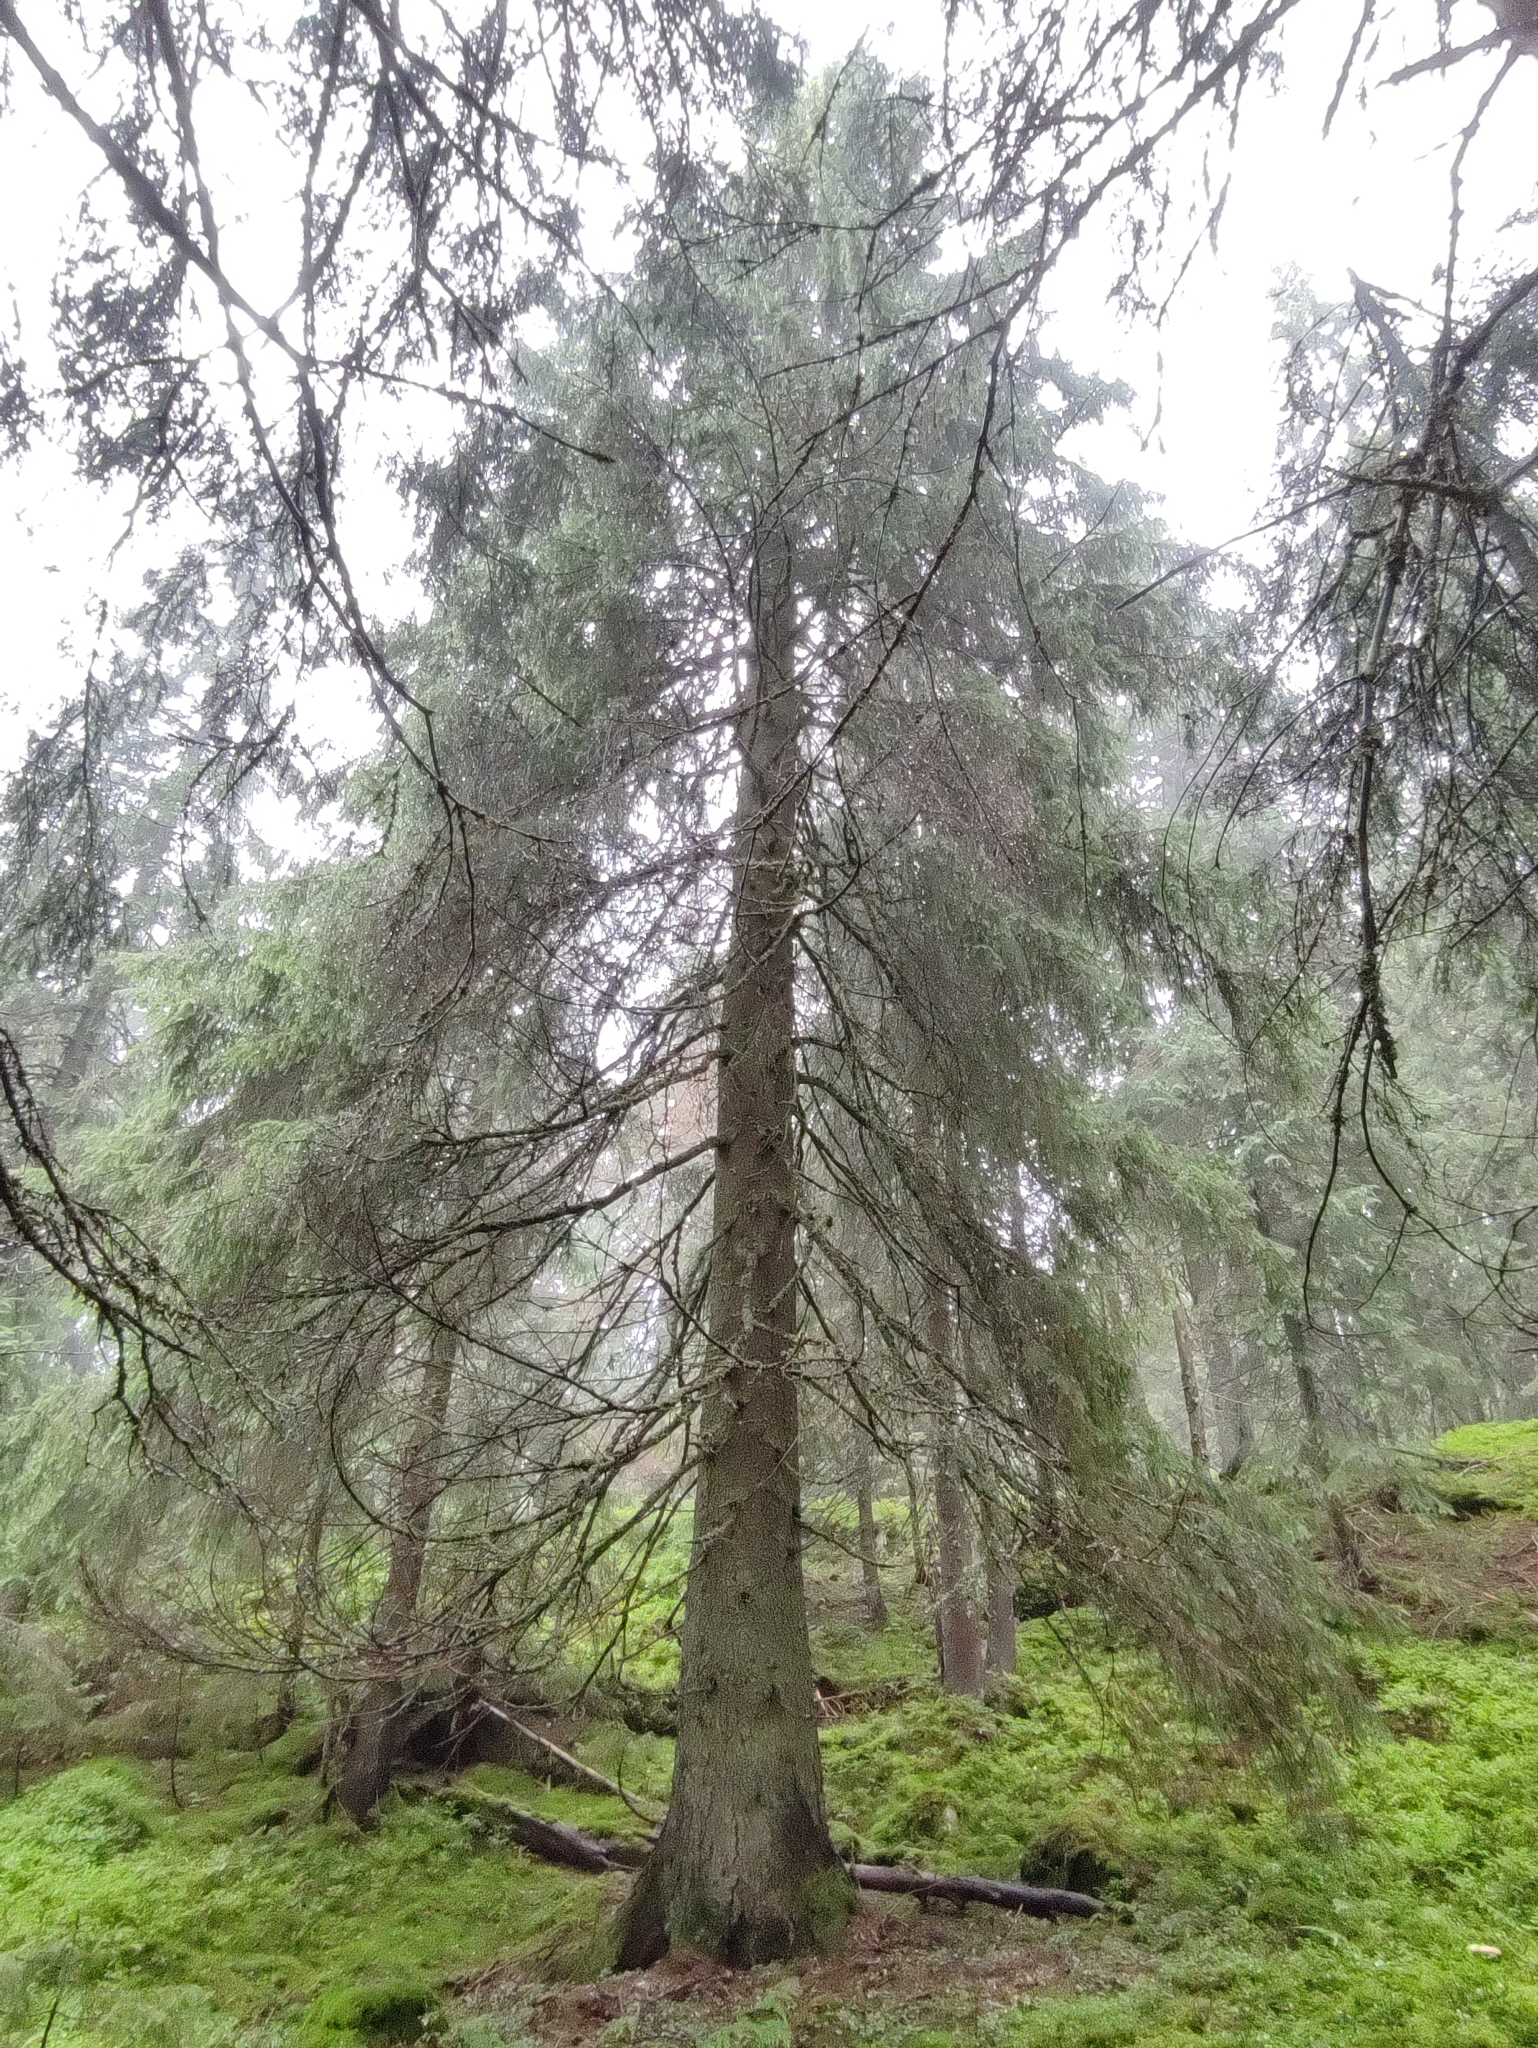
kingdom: Plantae
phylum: Tracheophyta
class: Pinopsida
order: Pinales
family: Pinaceae
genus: Picea
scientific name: Picea abies
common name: Norway spruce
